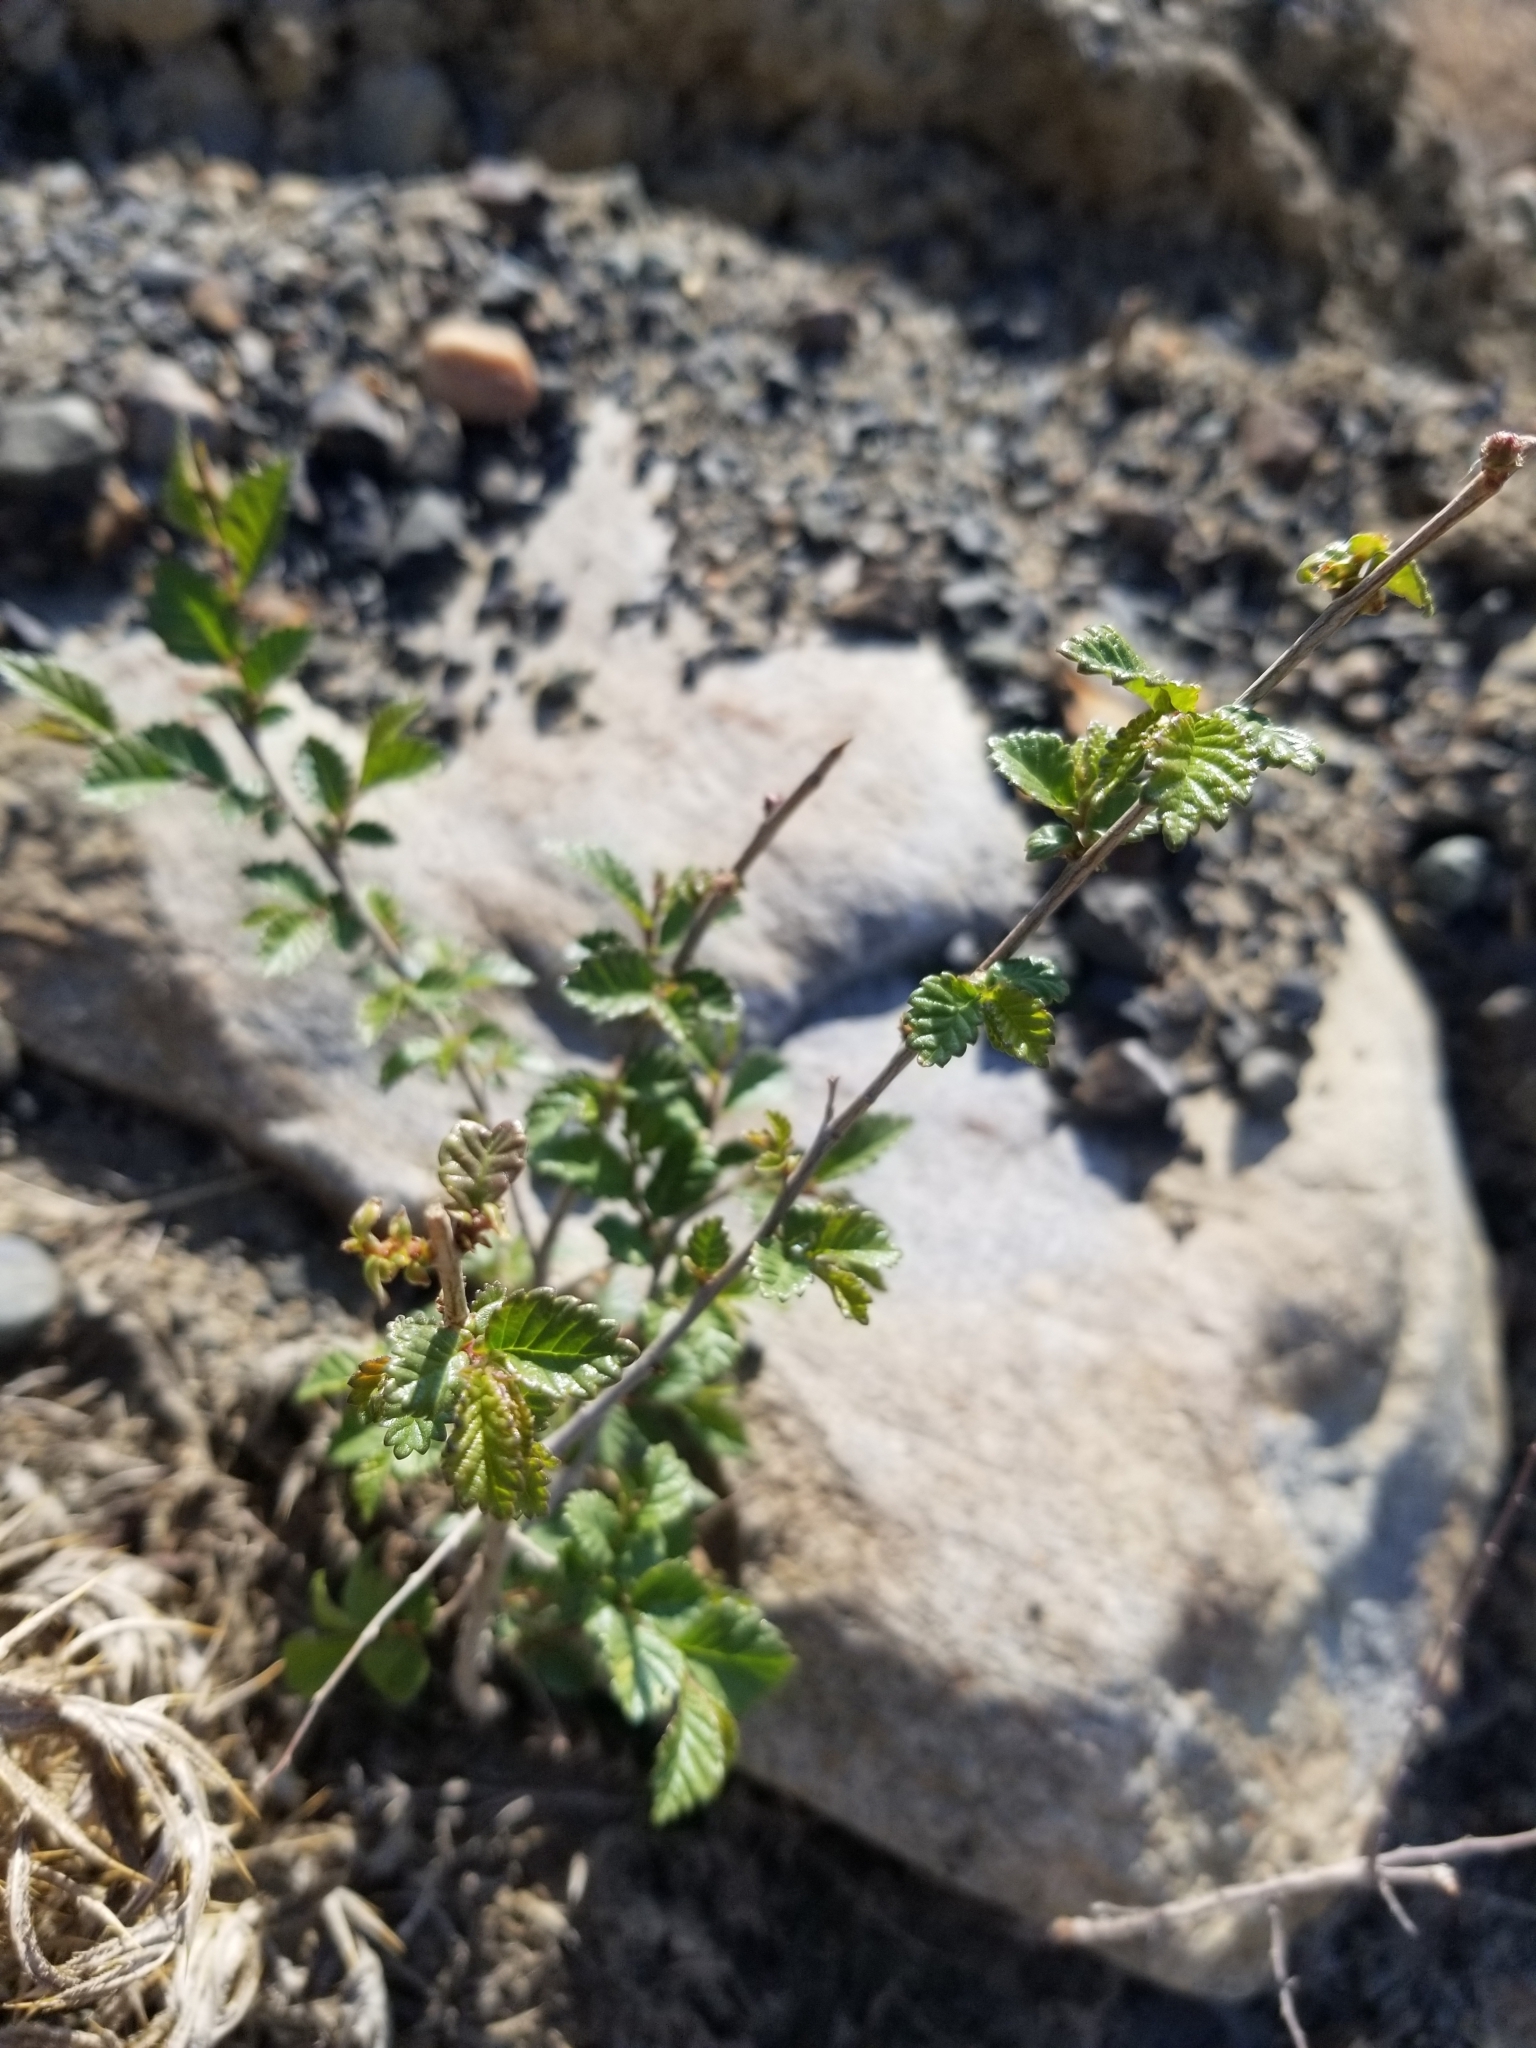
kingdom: Plantae
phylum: Tracheophyta
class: Magnoliopsida
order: Rosales
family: Ulmaceae
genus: Ulmus
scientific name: Ulmus pumila
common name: Siberian elm
